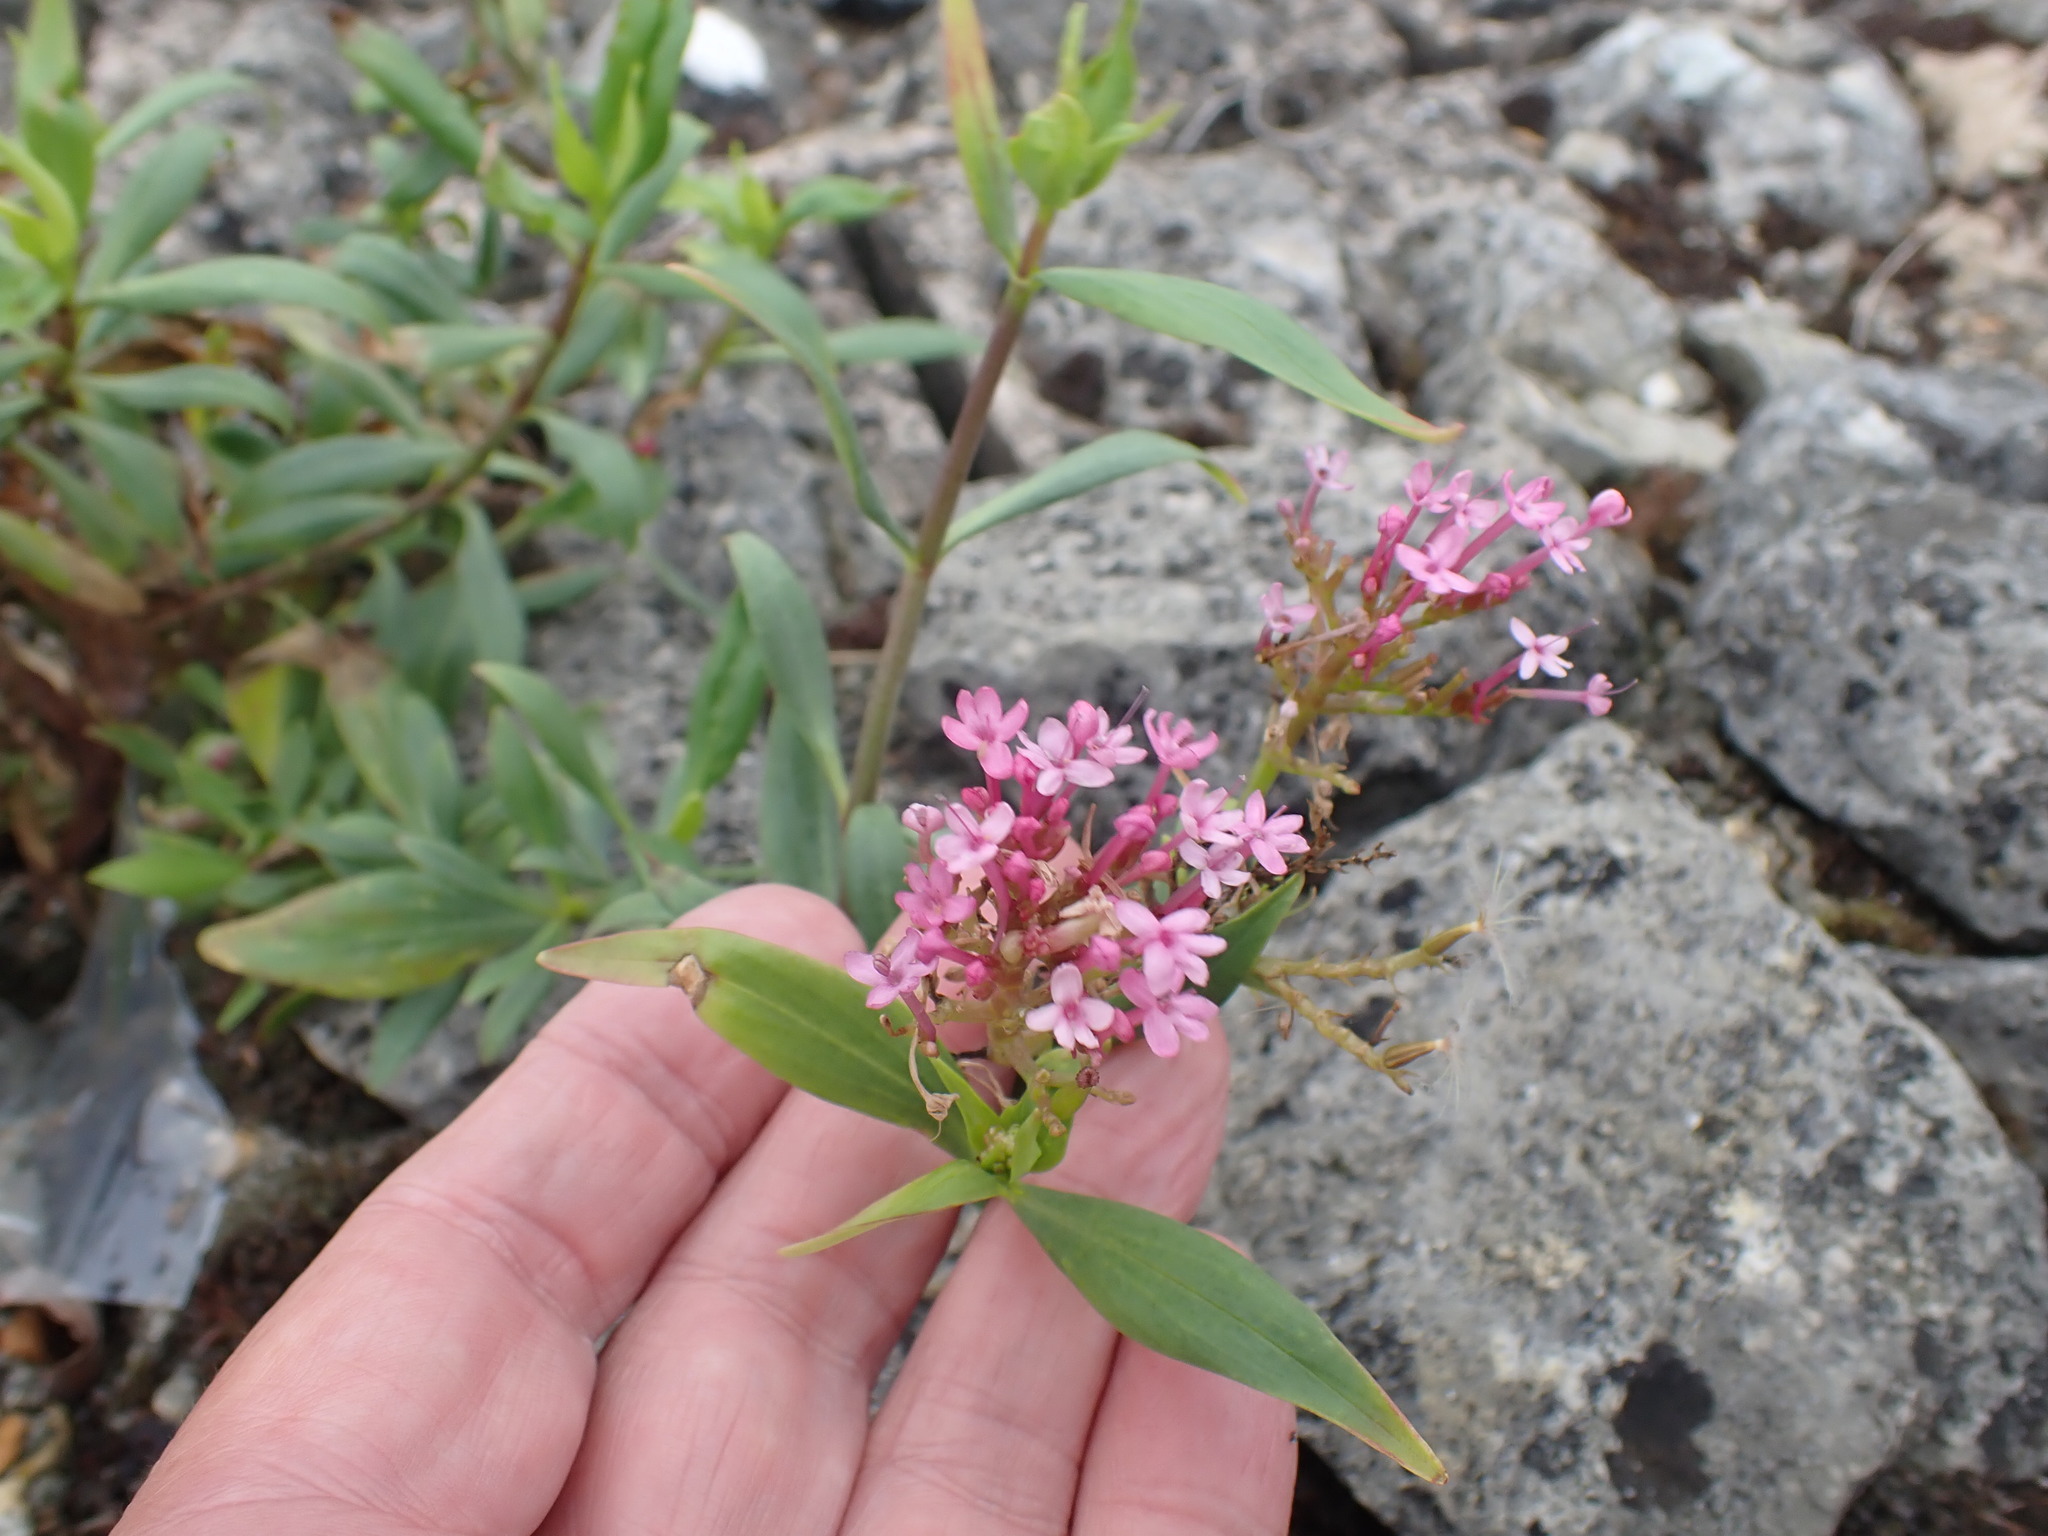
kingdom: Plantae
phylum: Tracheophyta
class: Magnoliopsida
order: Dipsacales
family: Caprifoliaceae
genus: Centranthus
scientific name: Centranthus ruber
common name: Red valerian
